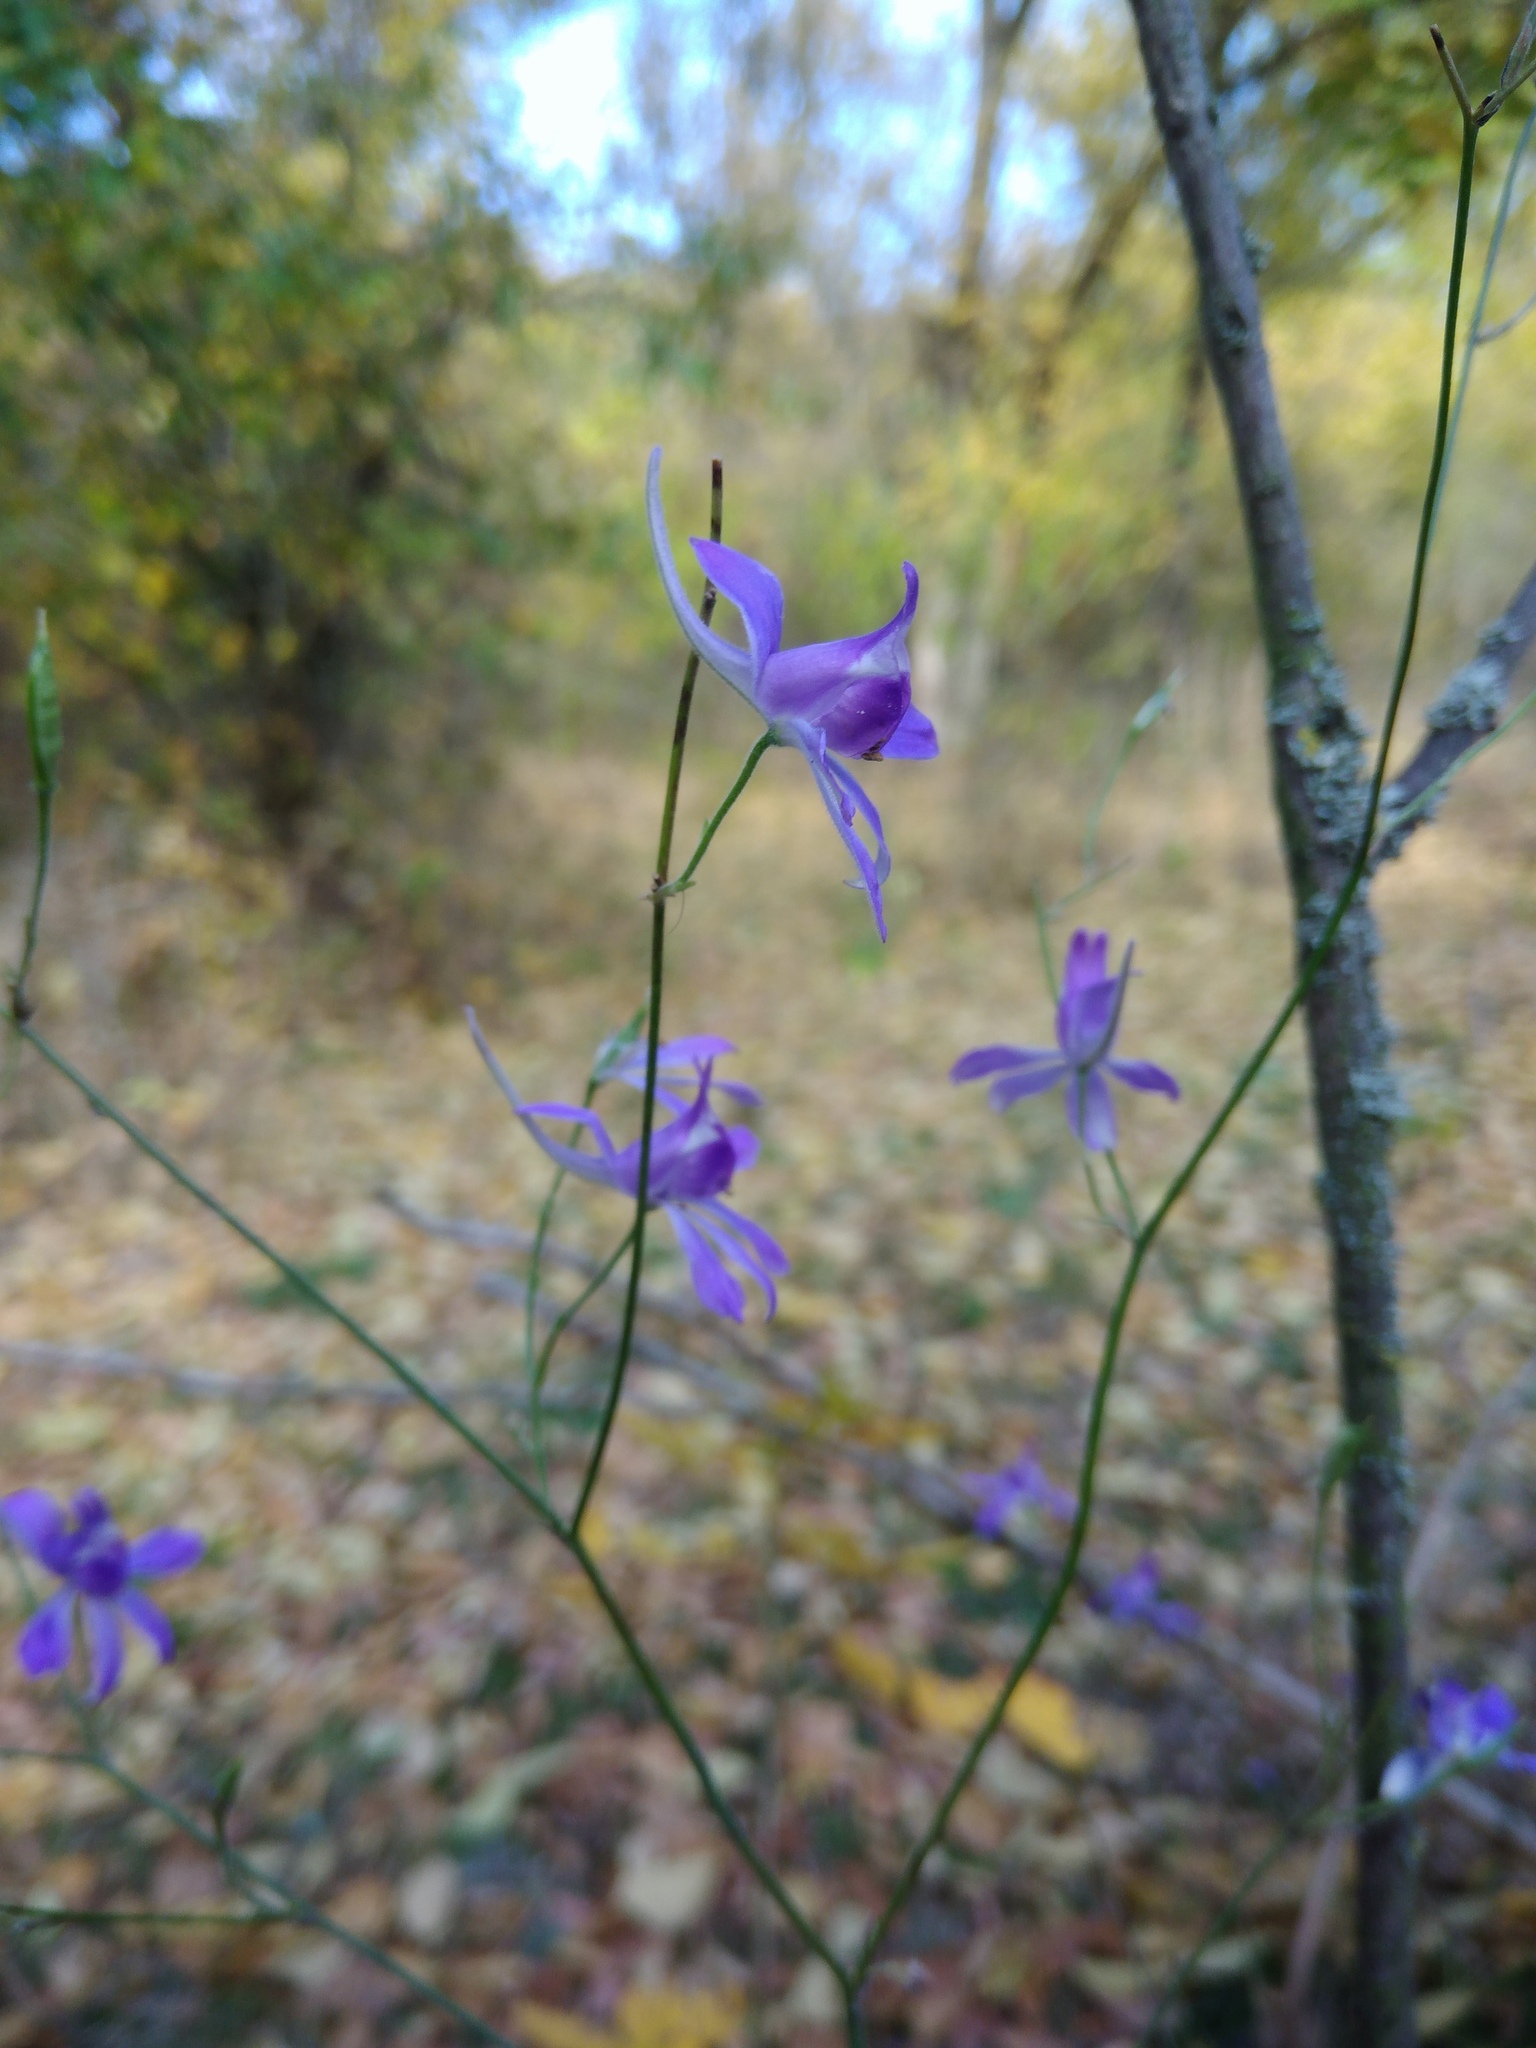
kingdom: Plantae
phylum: Tracheophyta
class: Magnoliopsida
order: Ranunculales
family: Ranunculaceae
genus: Delphinium
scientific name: Delphinium consolida
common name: Branching larkspur
